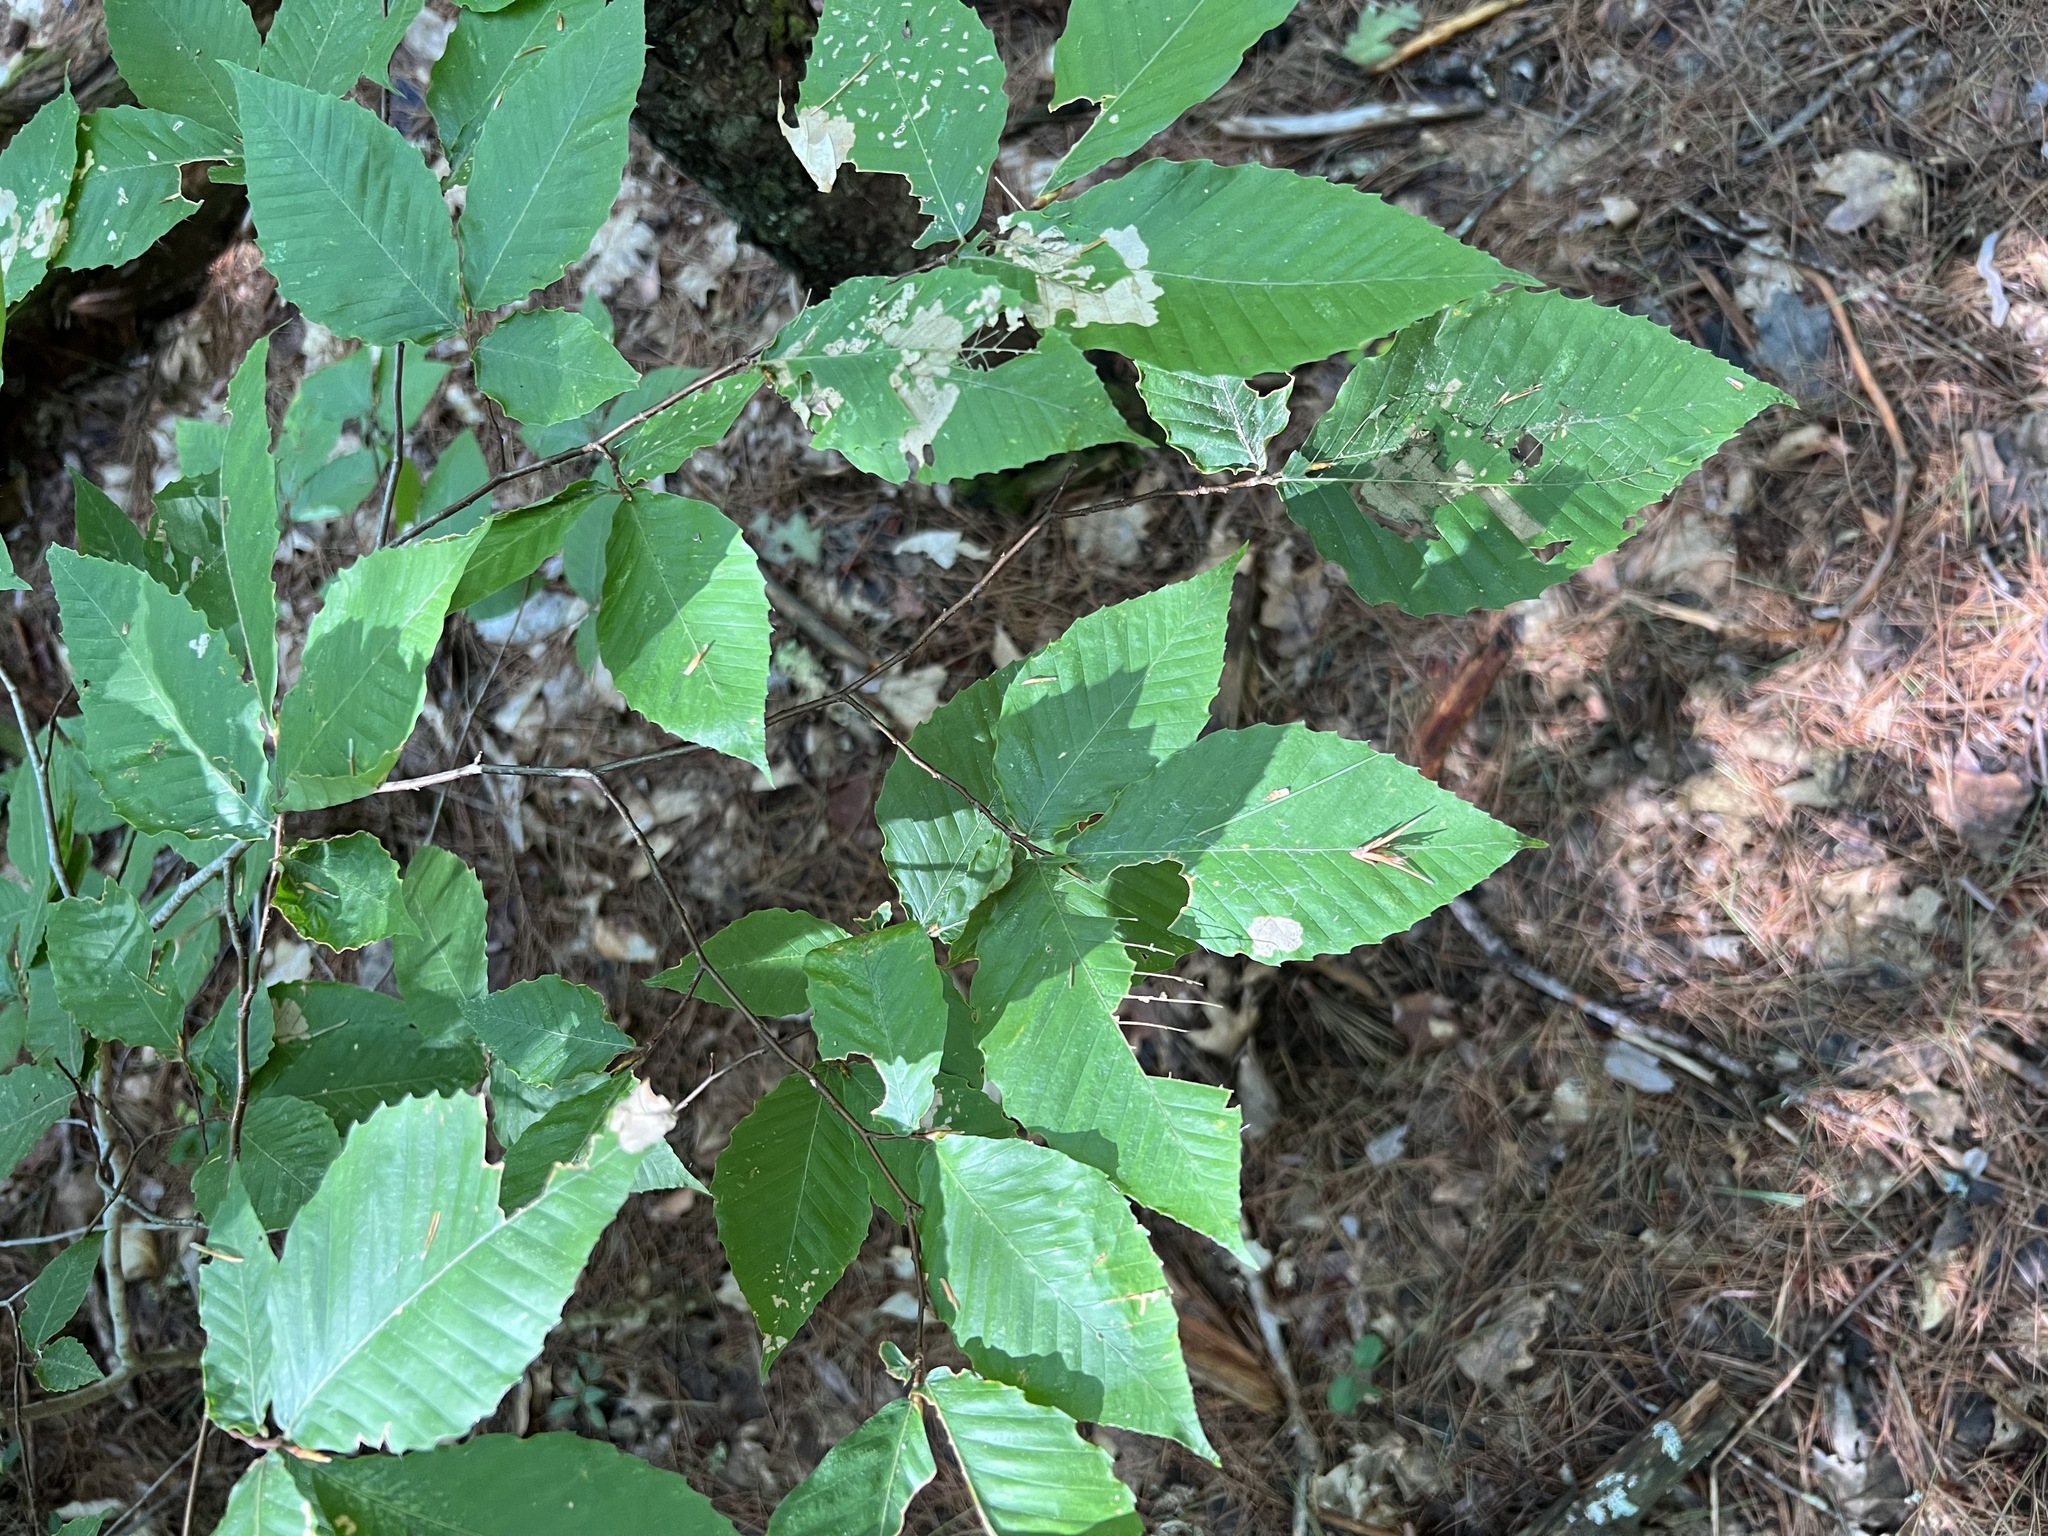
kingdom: Plantae
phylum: Tracheophyta
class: Magnoliopsida
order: Fagales
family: Fagaceae
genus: Fagus
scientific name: Fagus grandifolia
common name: American beech
